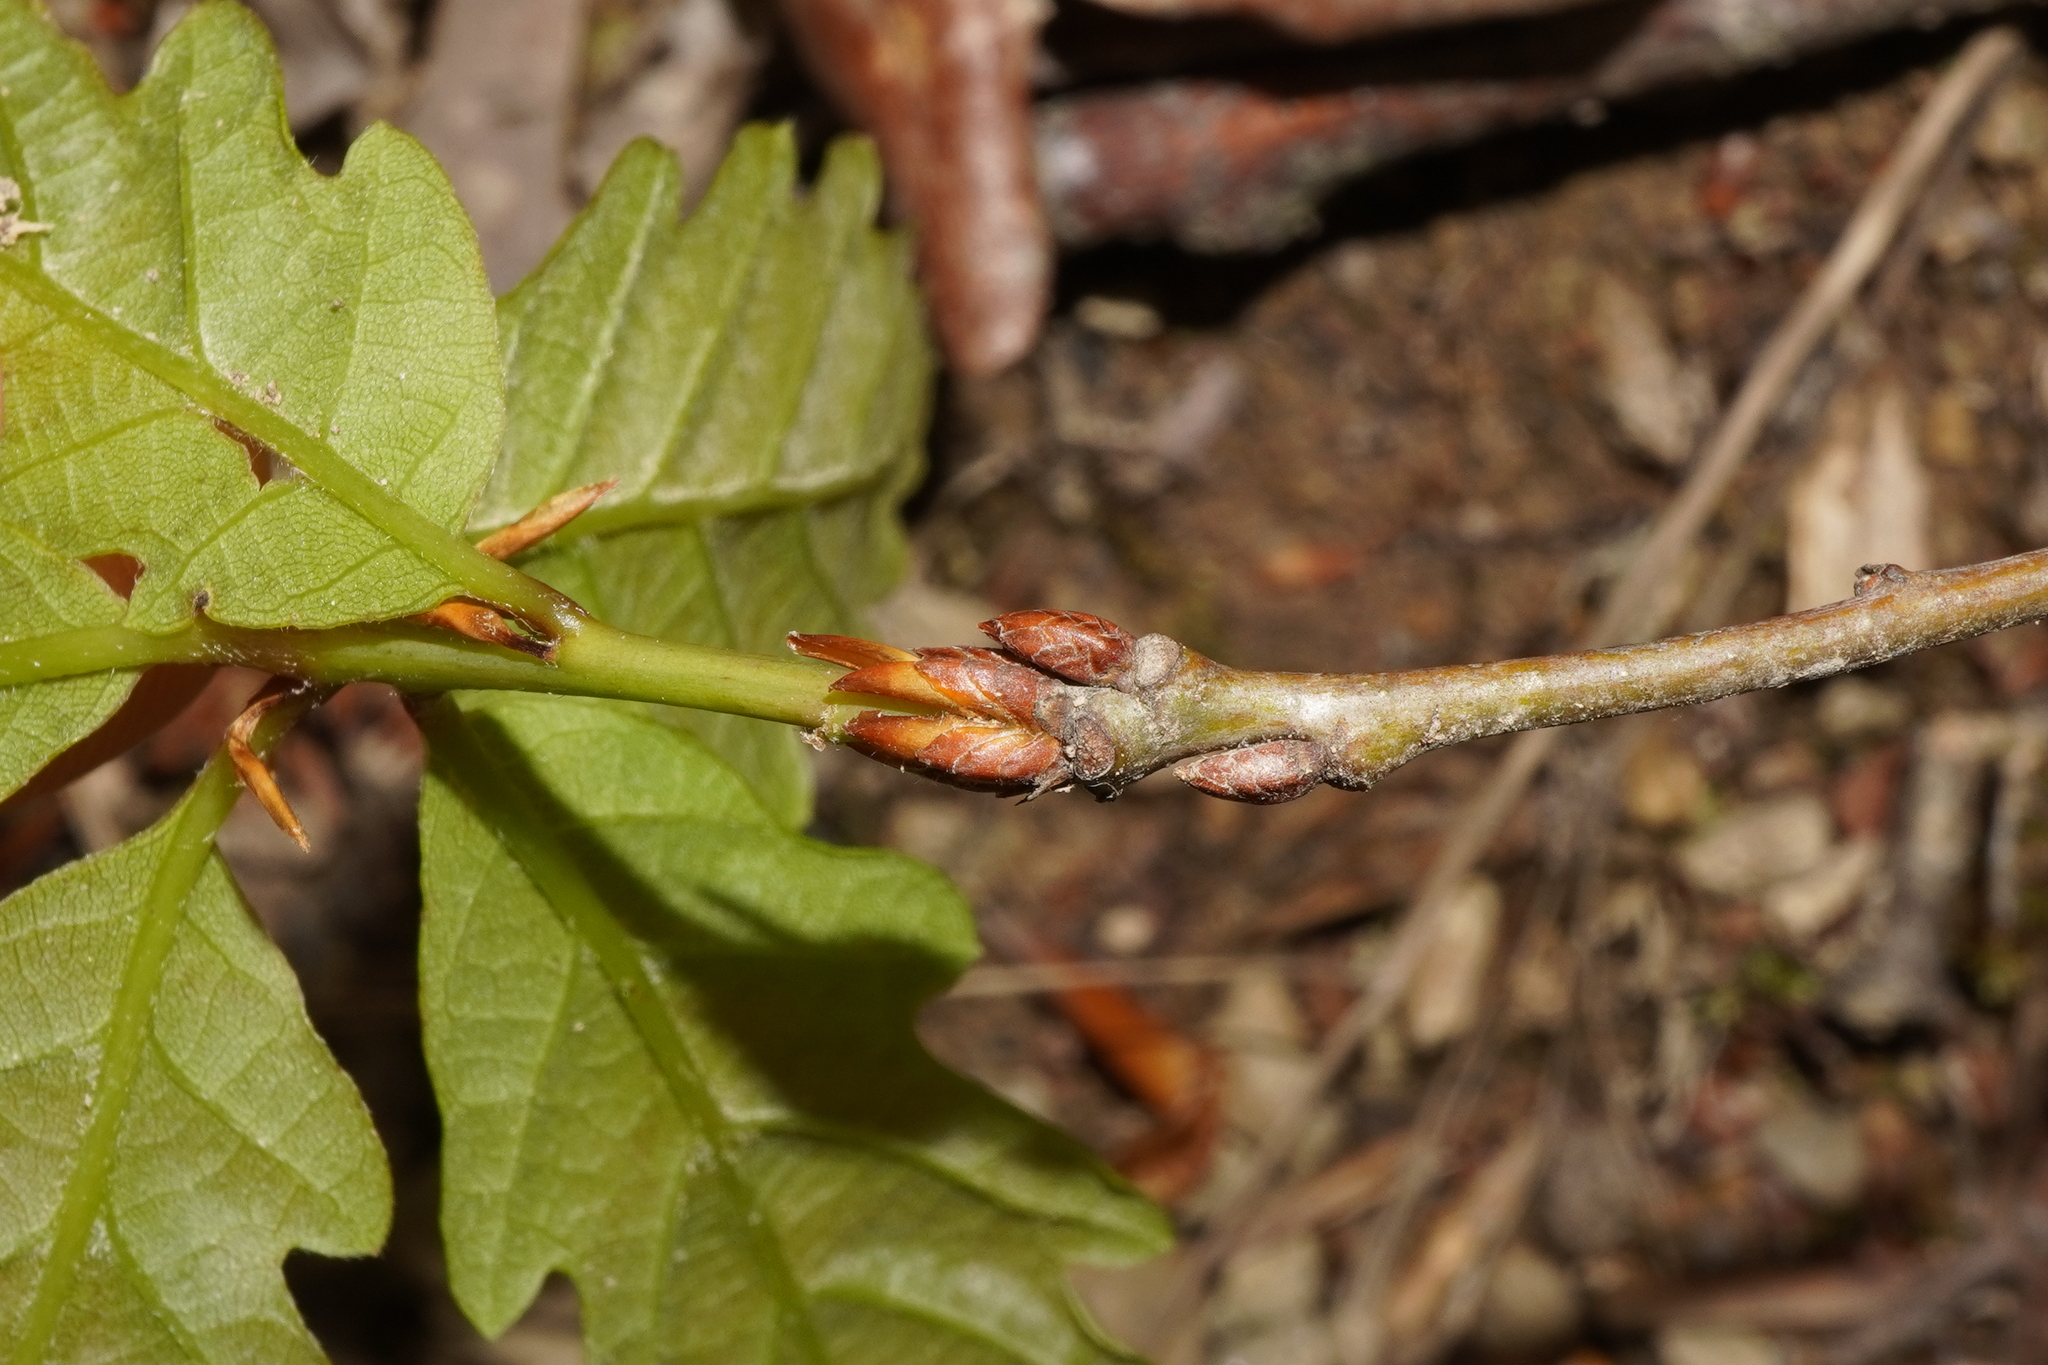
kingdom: Plantae
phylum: Tracheophyta
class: Magnoliopsida
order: Fagales
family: Fagaceae
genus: Quercus
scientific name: Quercus petraea
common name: Sessile oak
